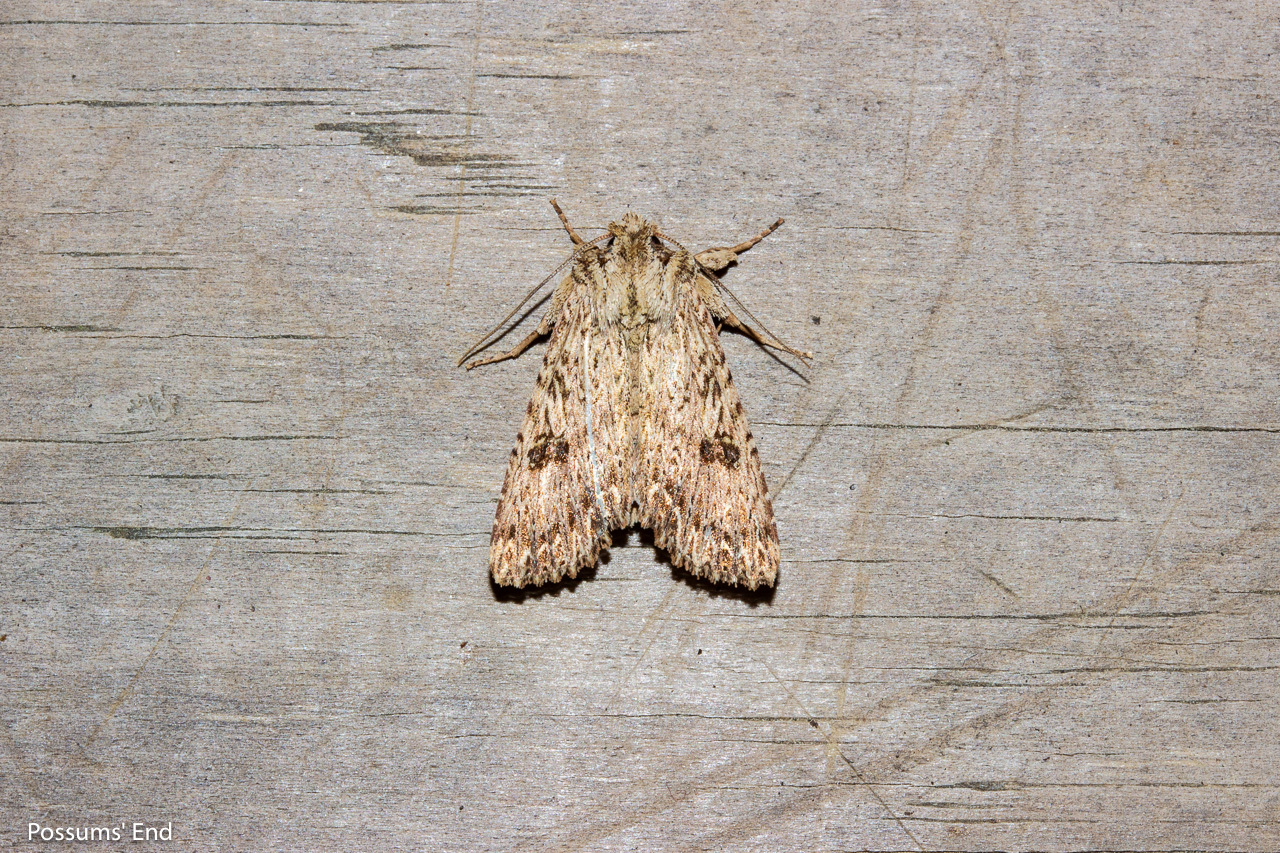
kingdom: Animalia
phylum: Arthropoda
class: Insecta
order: Lepidoptera
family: Noctuidae
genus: Meterana
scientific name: Meterana pansicolor
